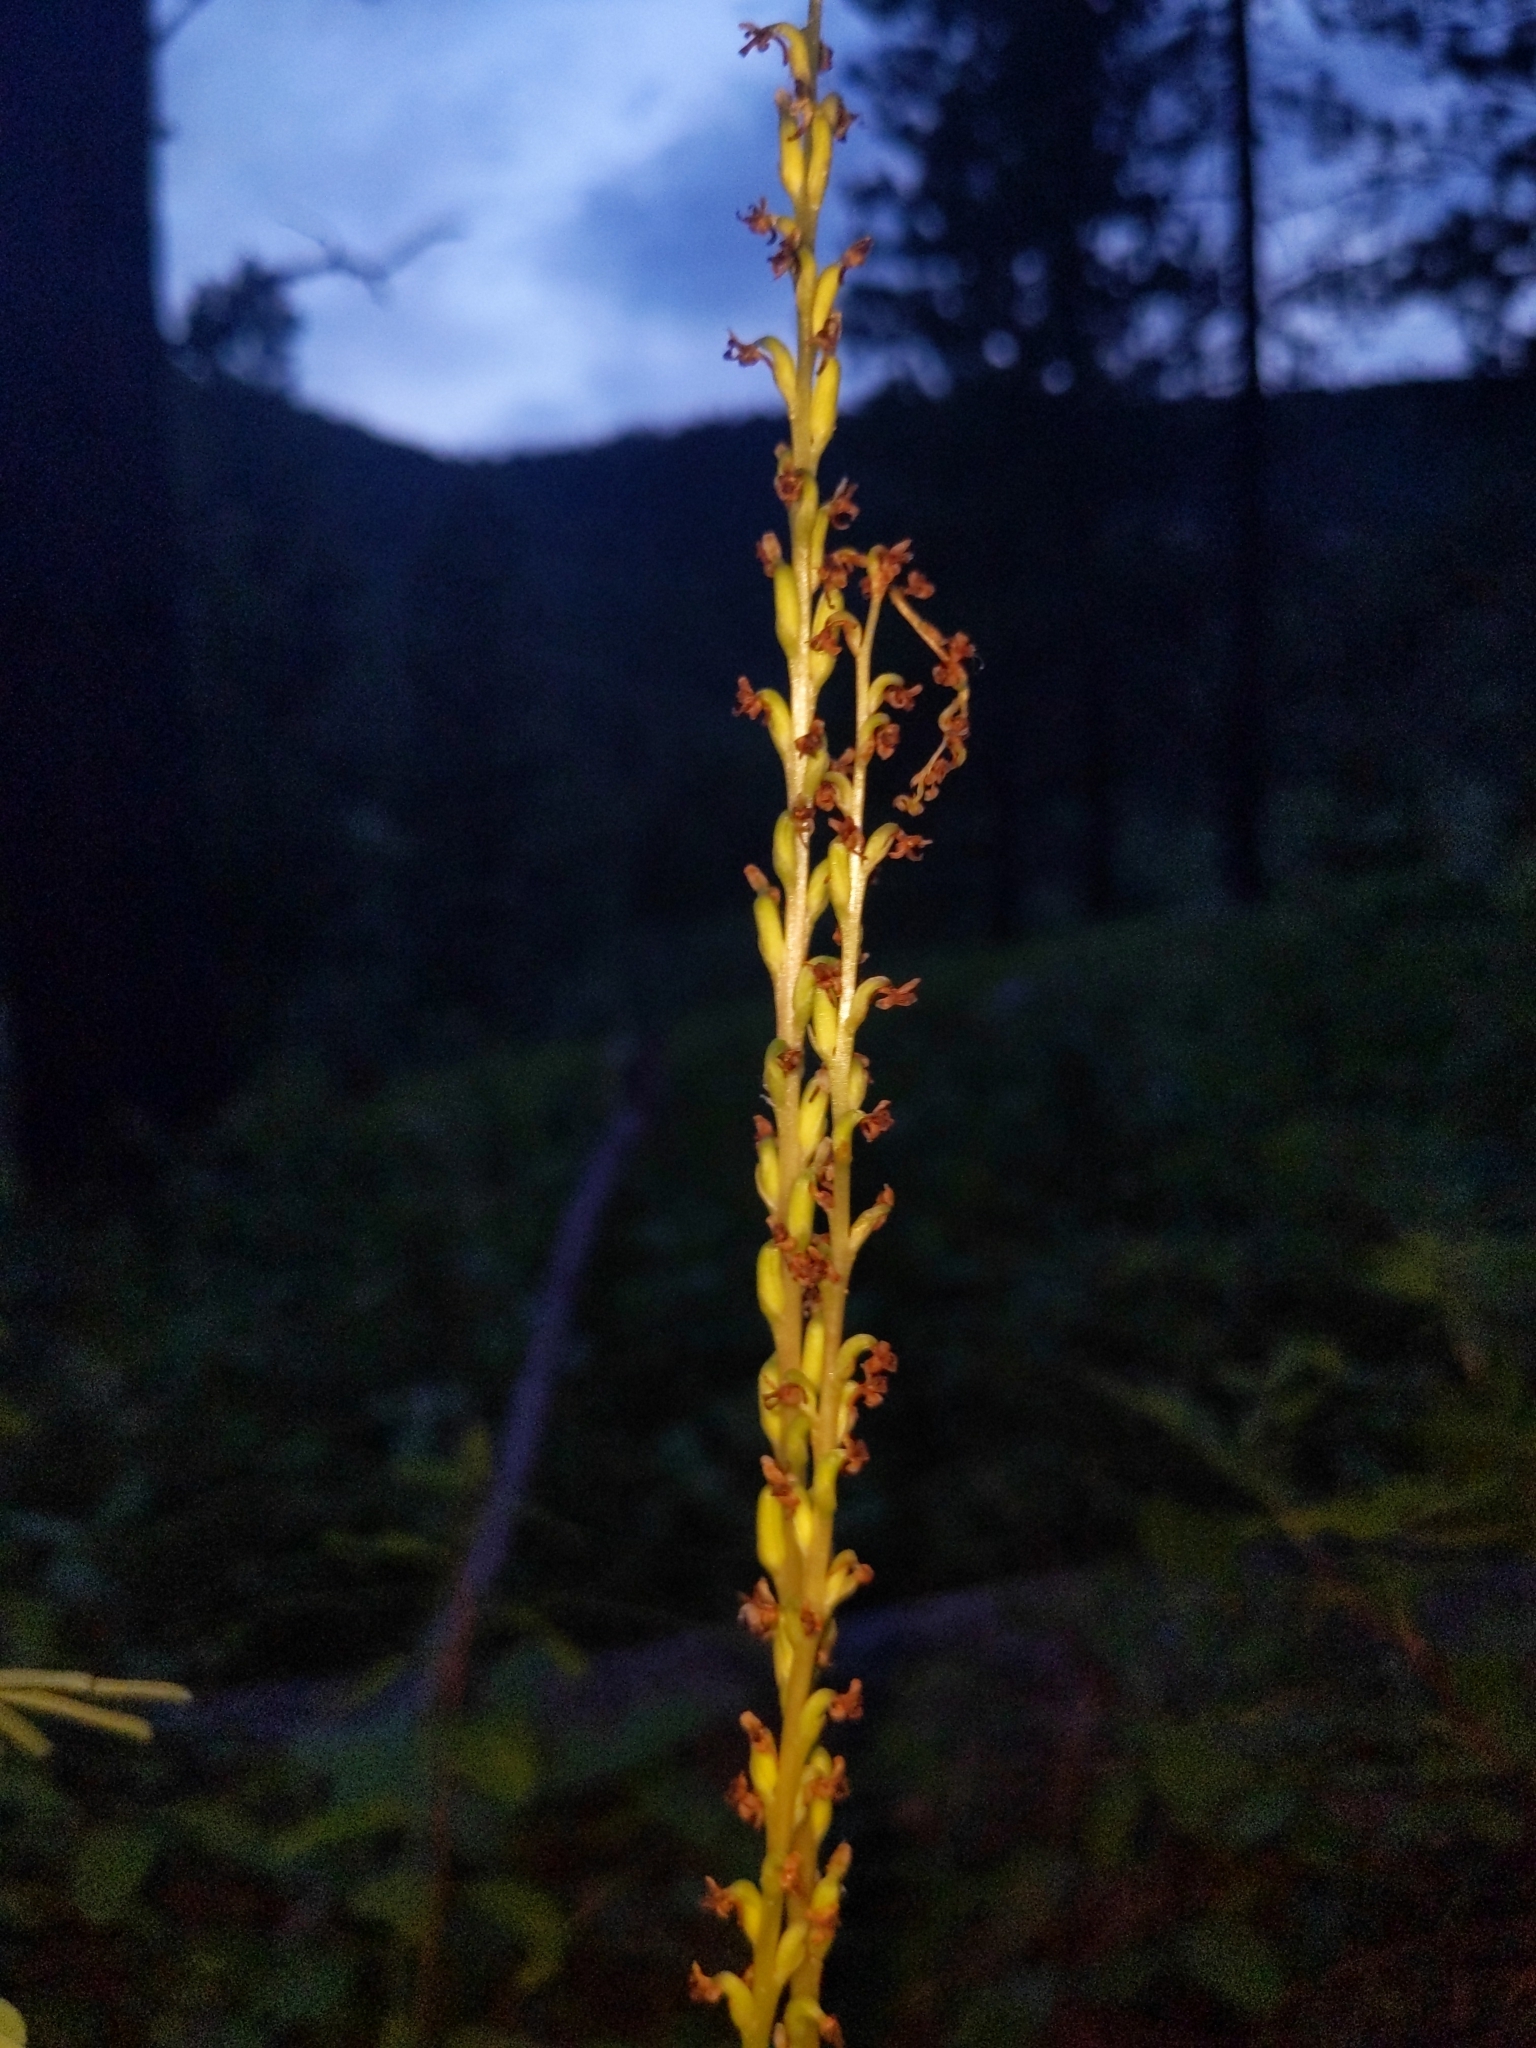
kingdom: Plantae
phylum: Tracheophyta
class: Liliopsida
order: Asparagales
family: Orchidaceae
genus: Platanthera
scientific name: Platanthera unalascensis
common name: Alaska bog orchid
